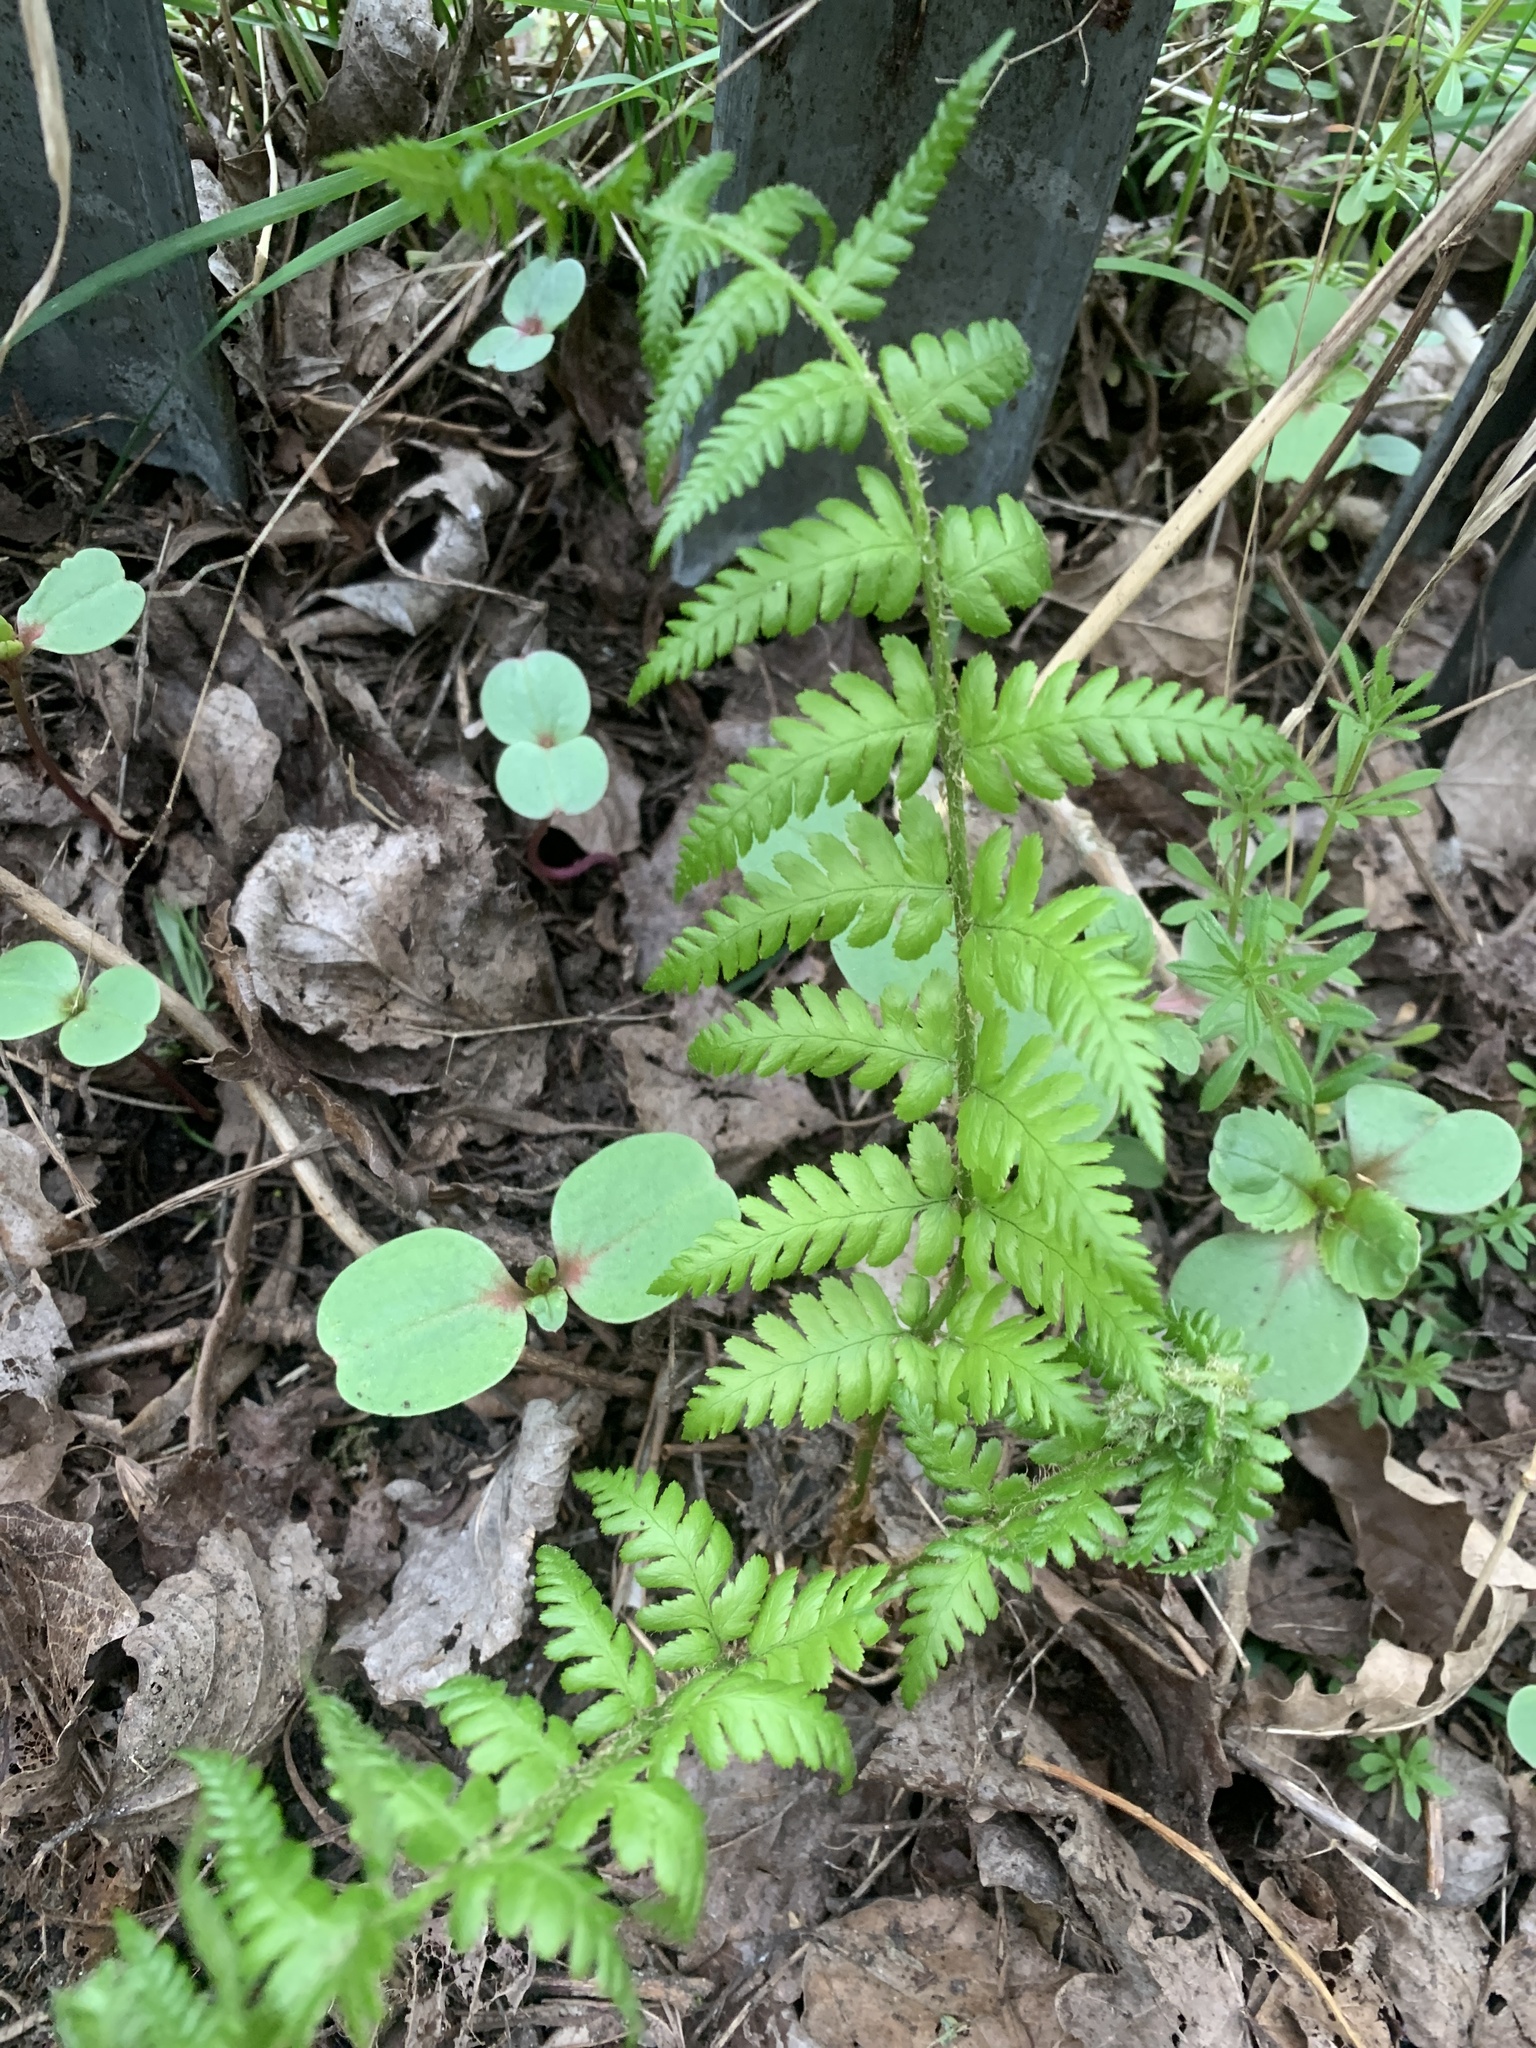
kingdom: Plantae
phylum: Tracheophyta
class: Polypodiopsida
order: Polypodiales
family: Dryopteridaceae
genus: Dryopteris
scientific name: Dryopteris filix-mas
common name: Male fern
